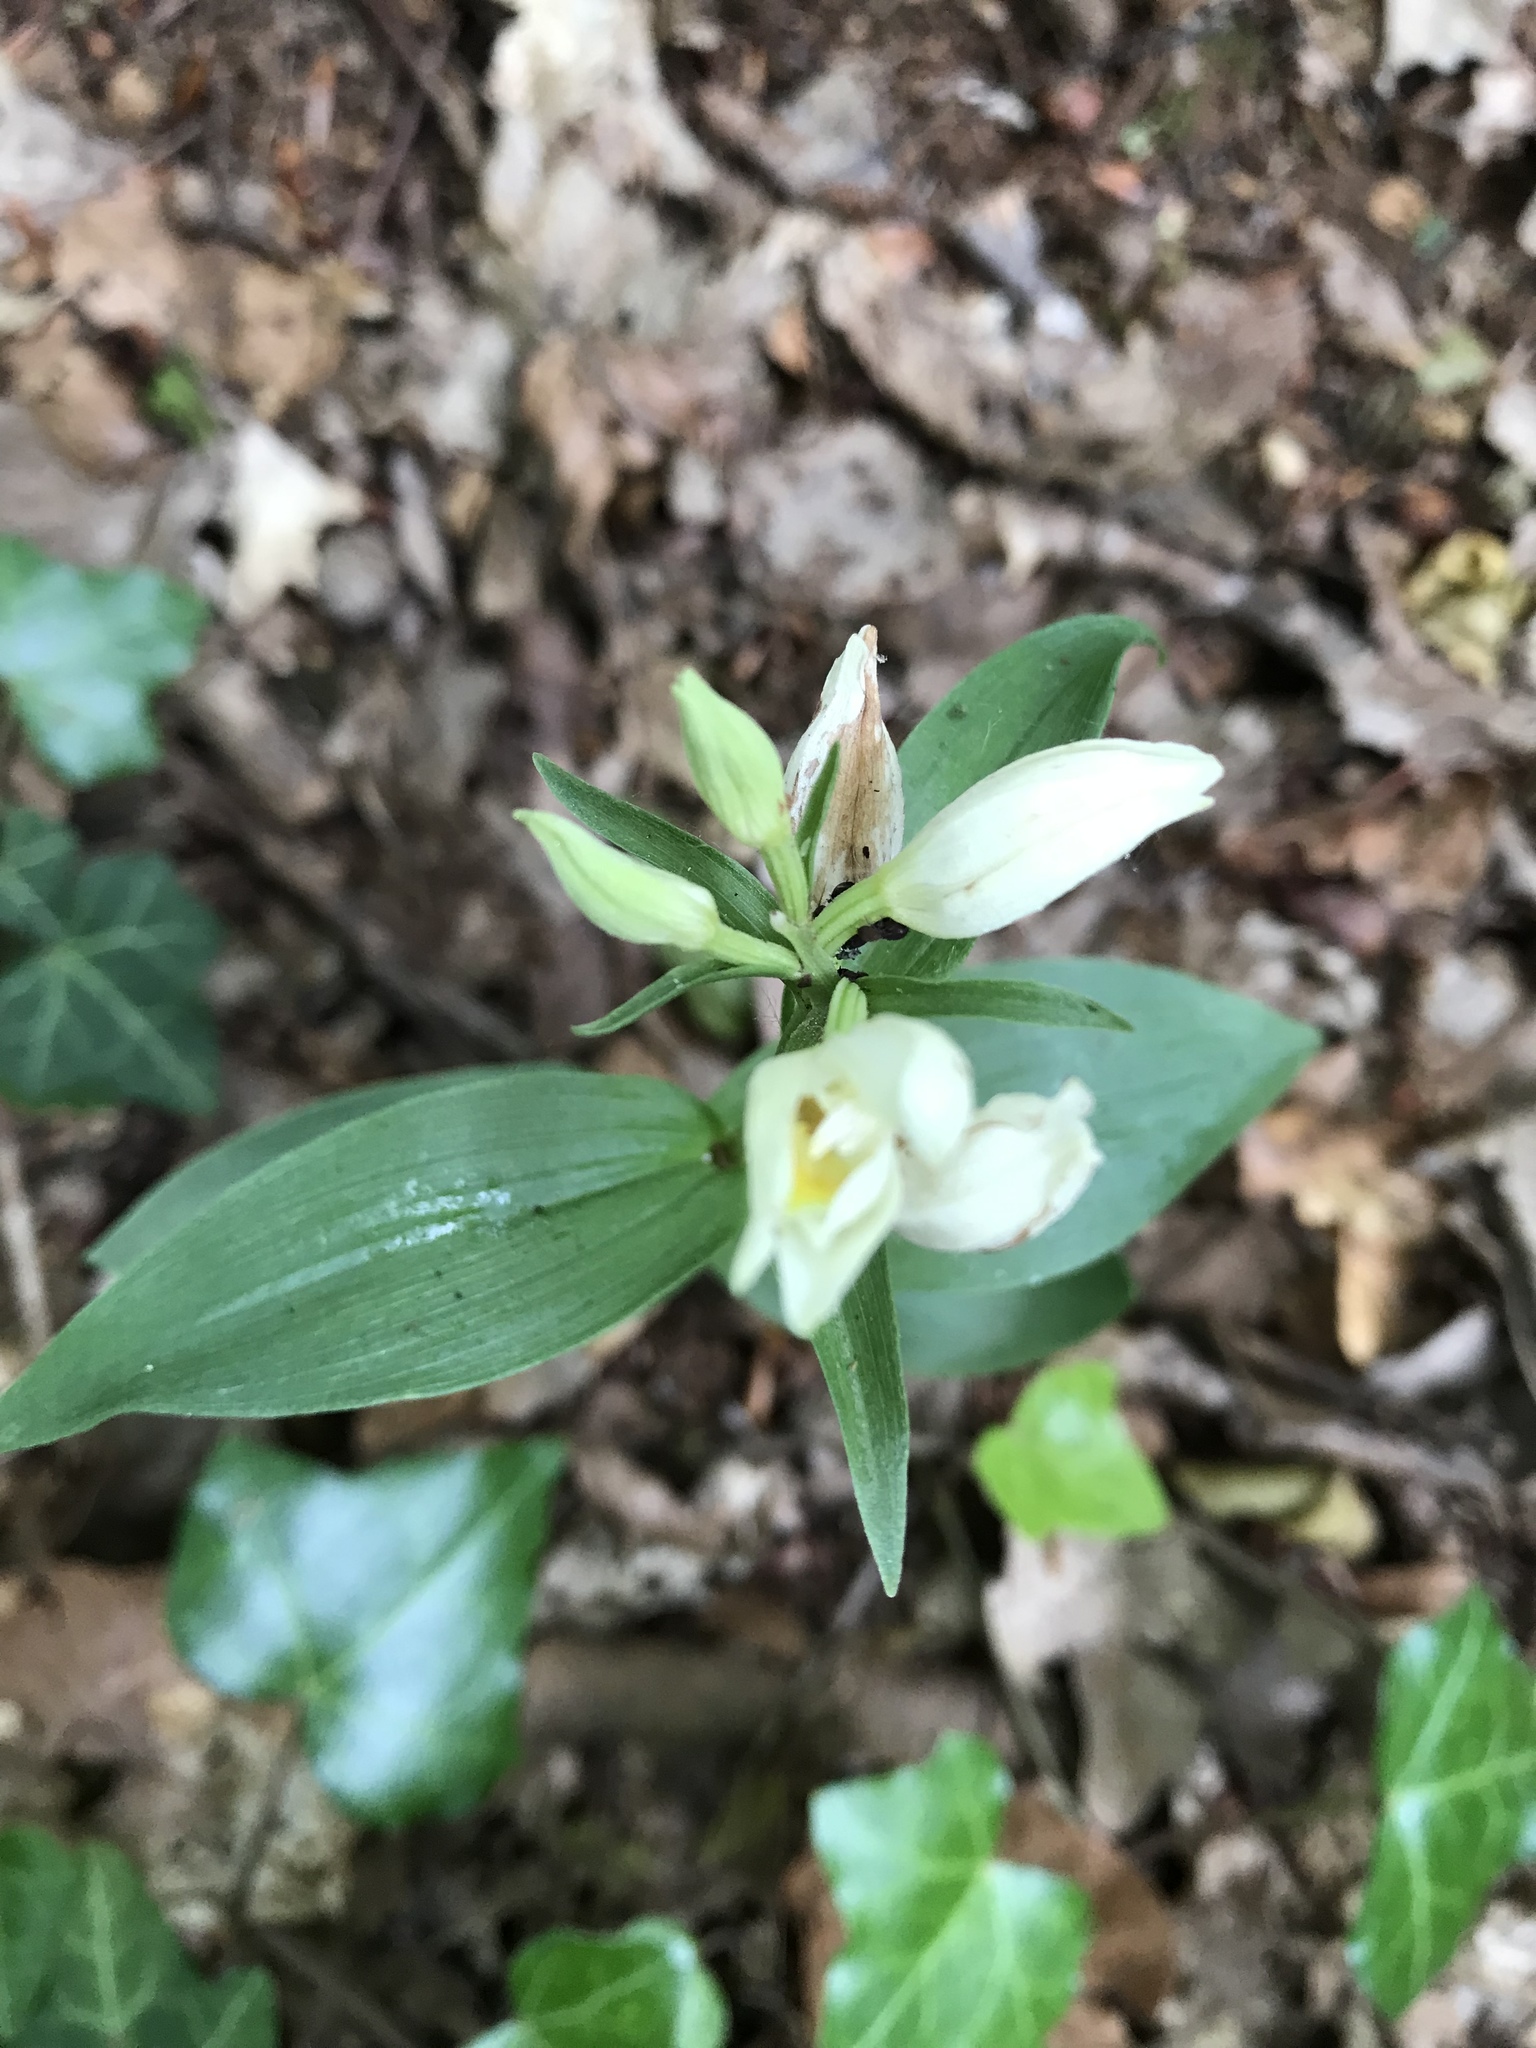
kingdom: Plantae
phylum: Tracheophyta
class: Liliopsida
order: Asparagales
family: Orchidaceae
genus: Cephalanthera
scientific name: Cephalanthera damasonium
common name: White helleborine
